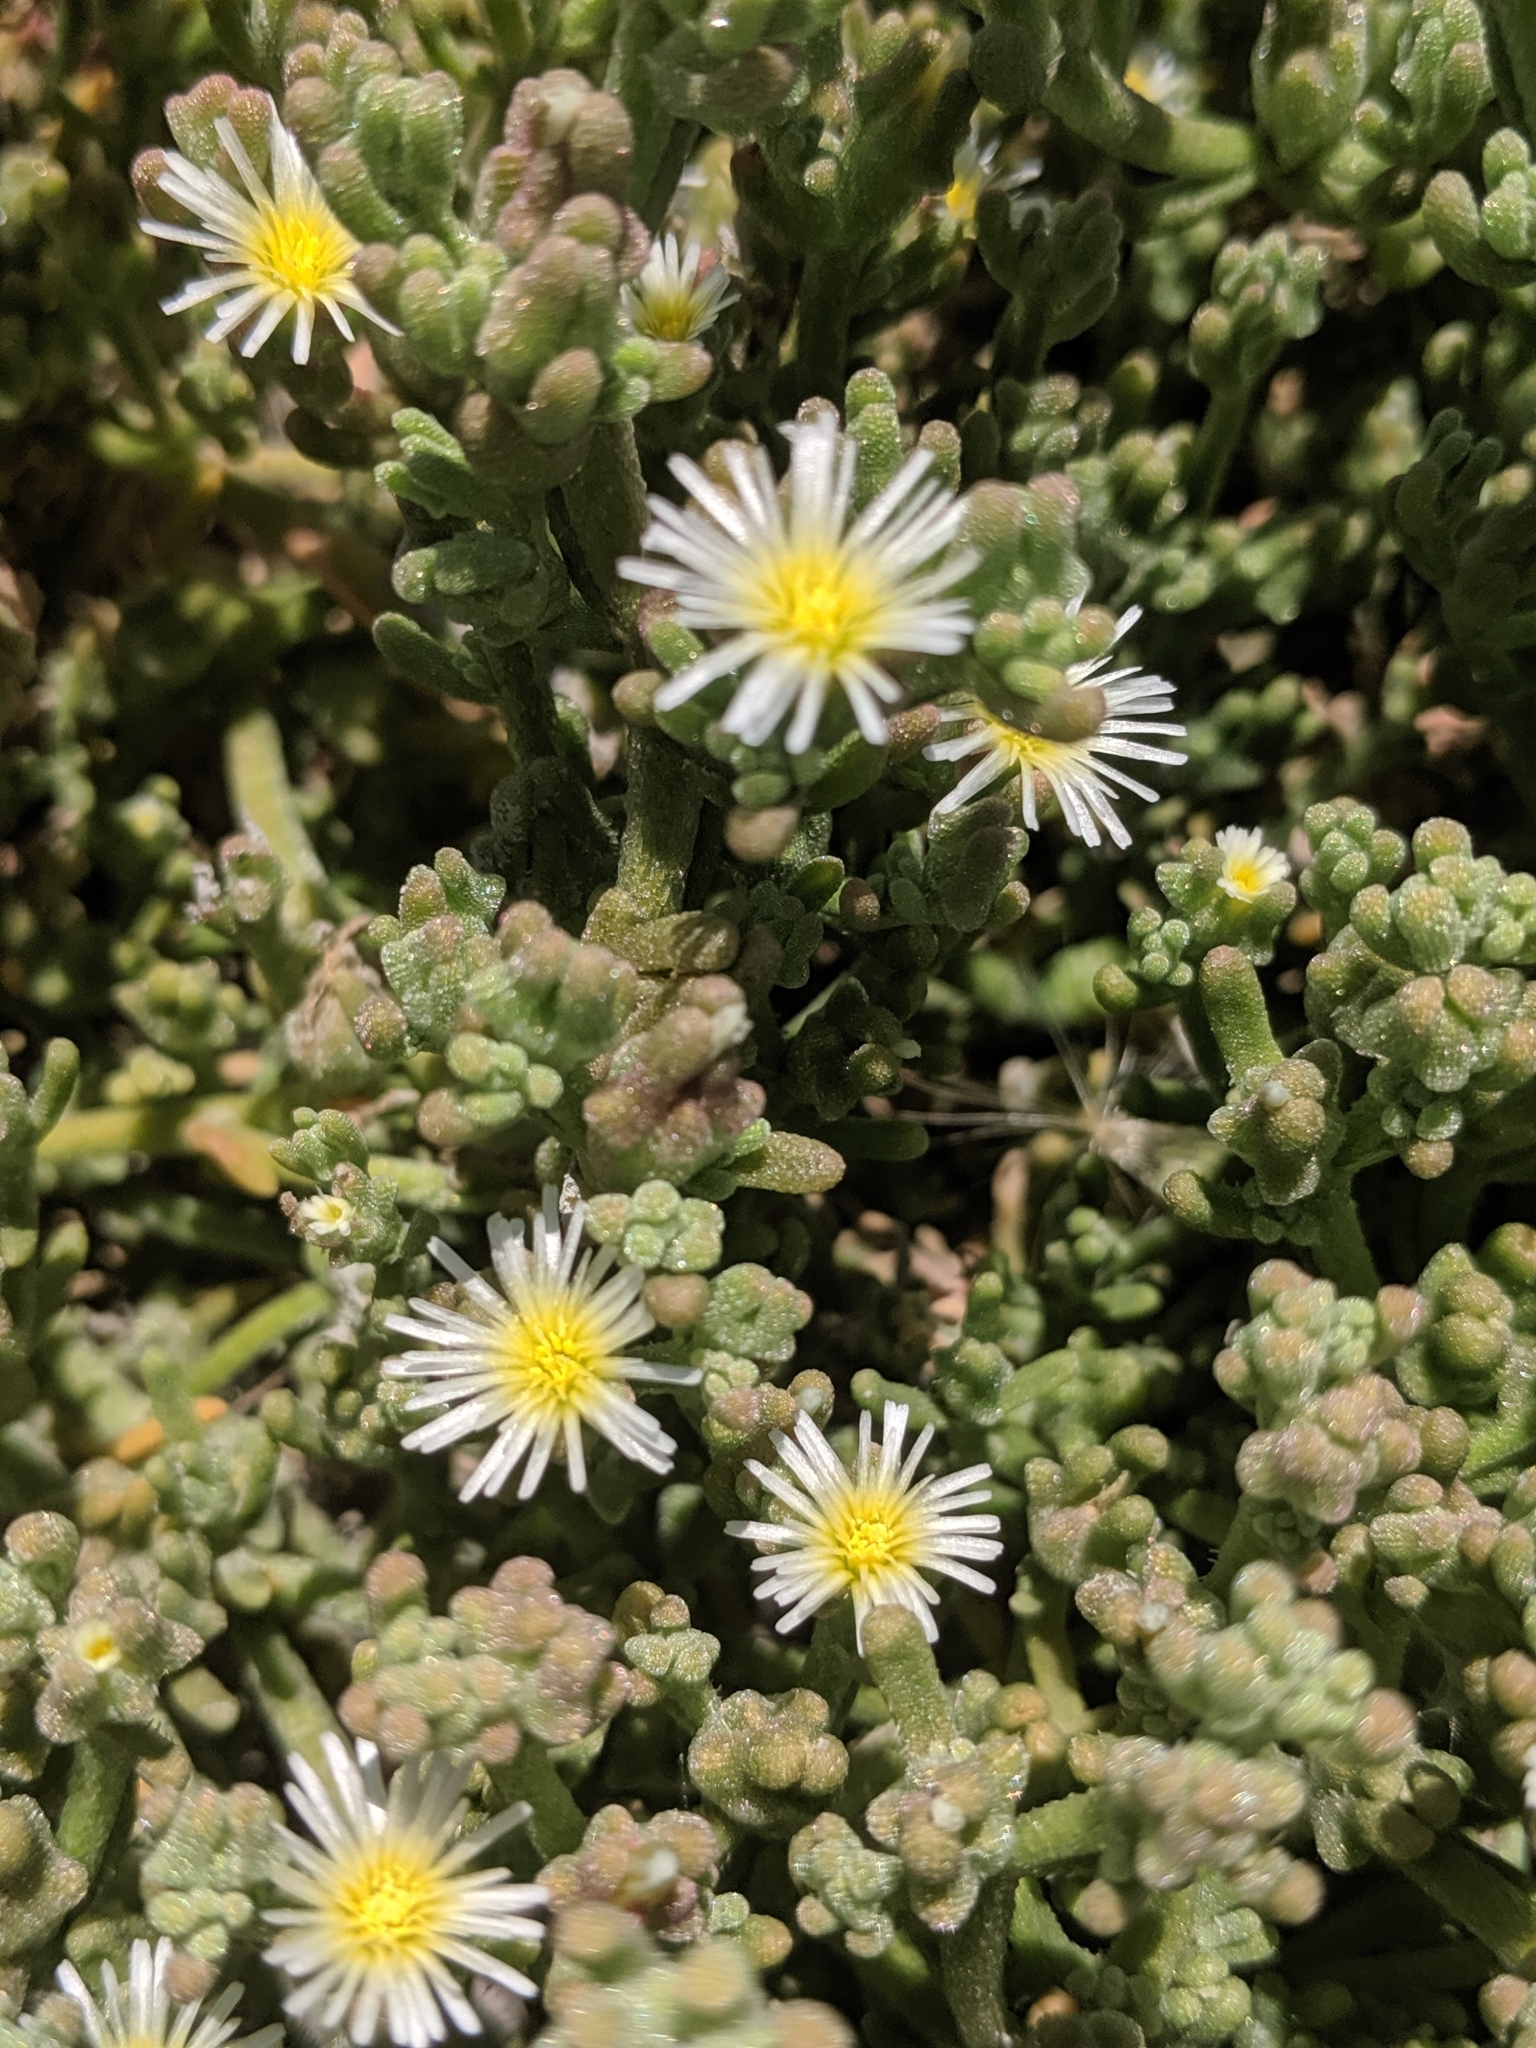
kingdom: Plantae
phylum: Tracheophyta
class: Magnoliopsida
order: Caryophyllales
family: Aizoaceae
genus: Mesembryanthemum
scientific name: Mesembryanthemum nodiflorum
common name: Slenderleaf iceplant
